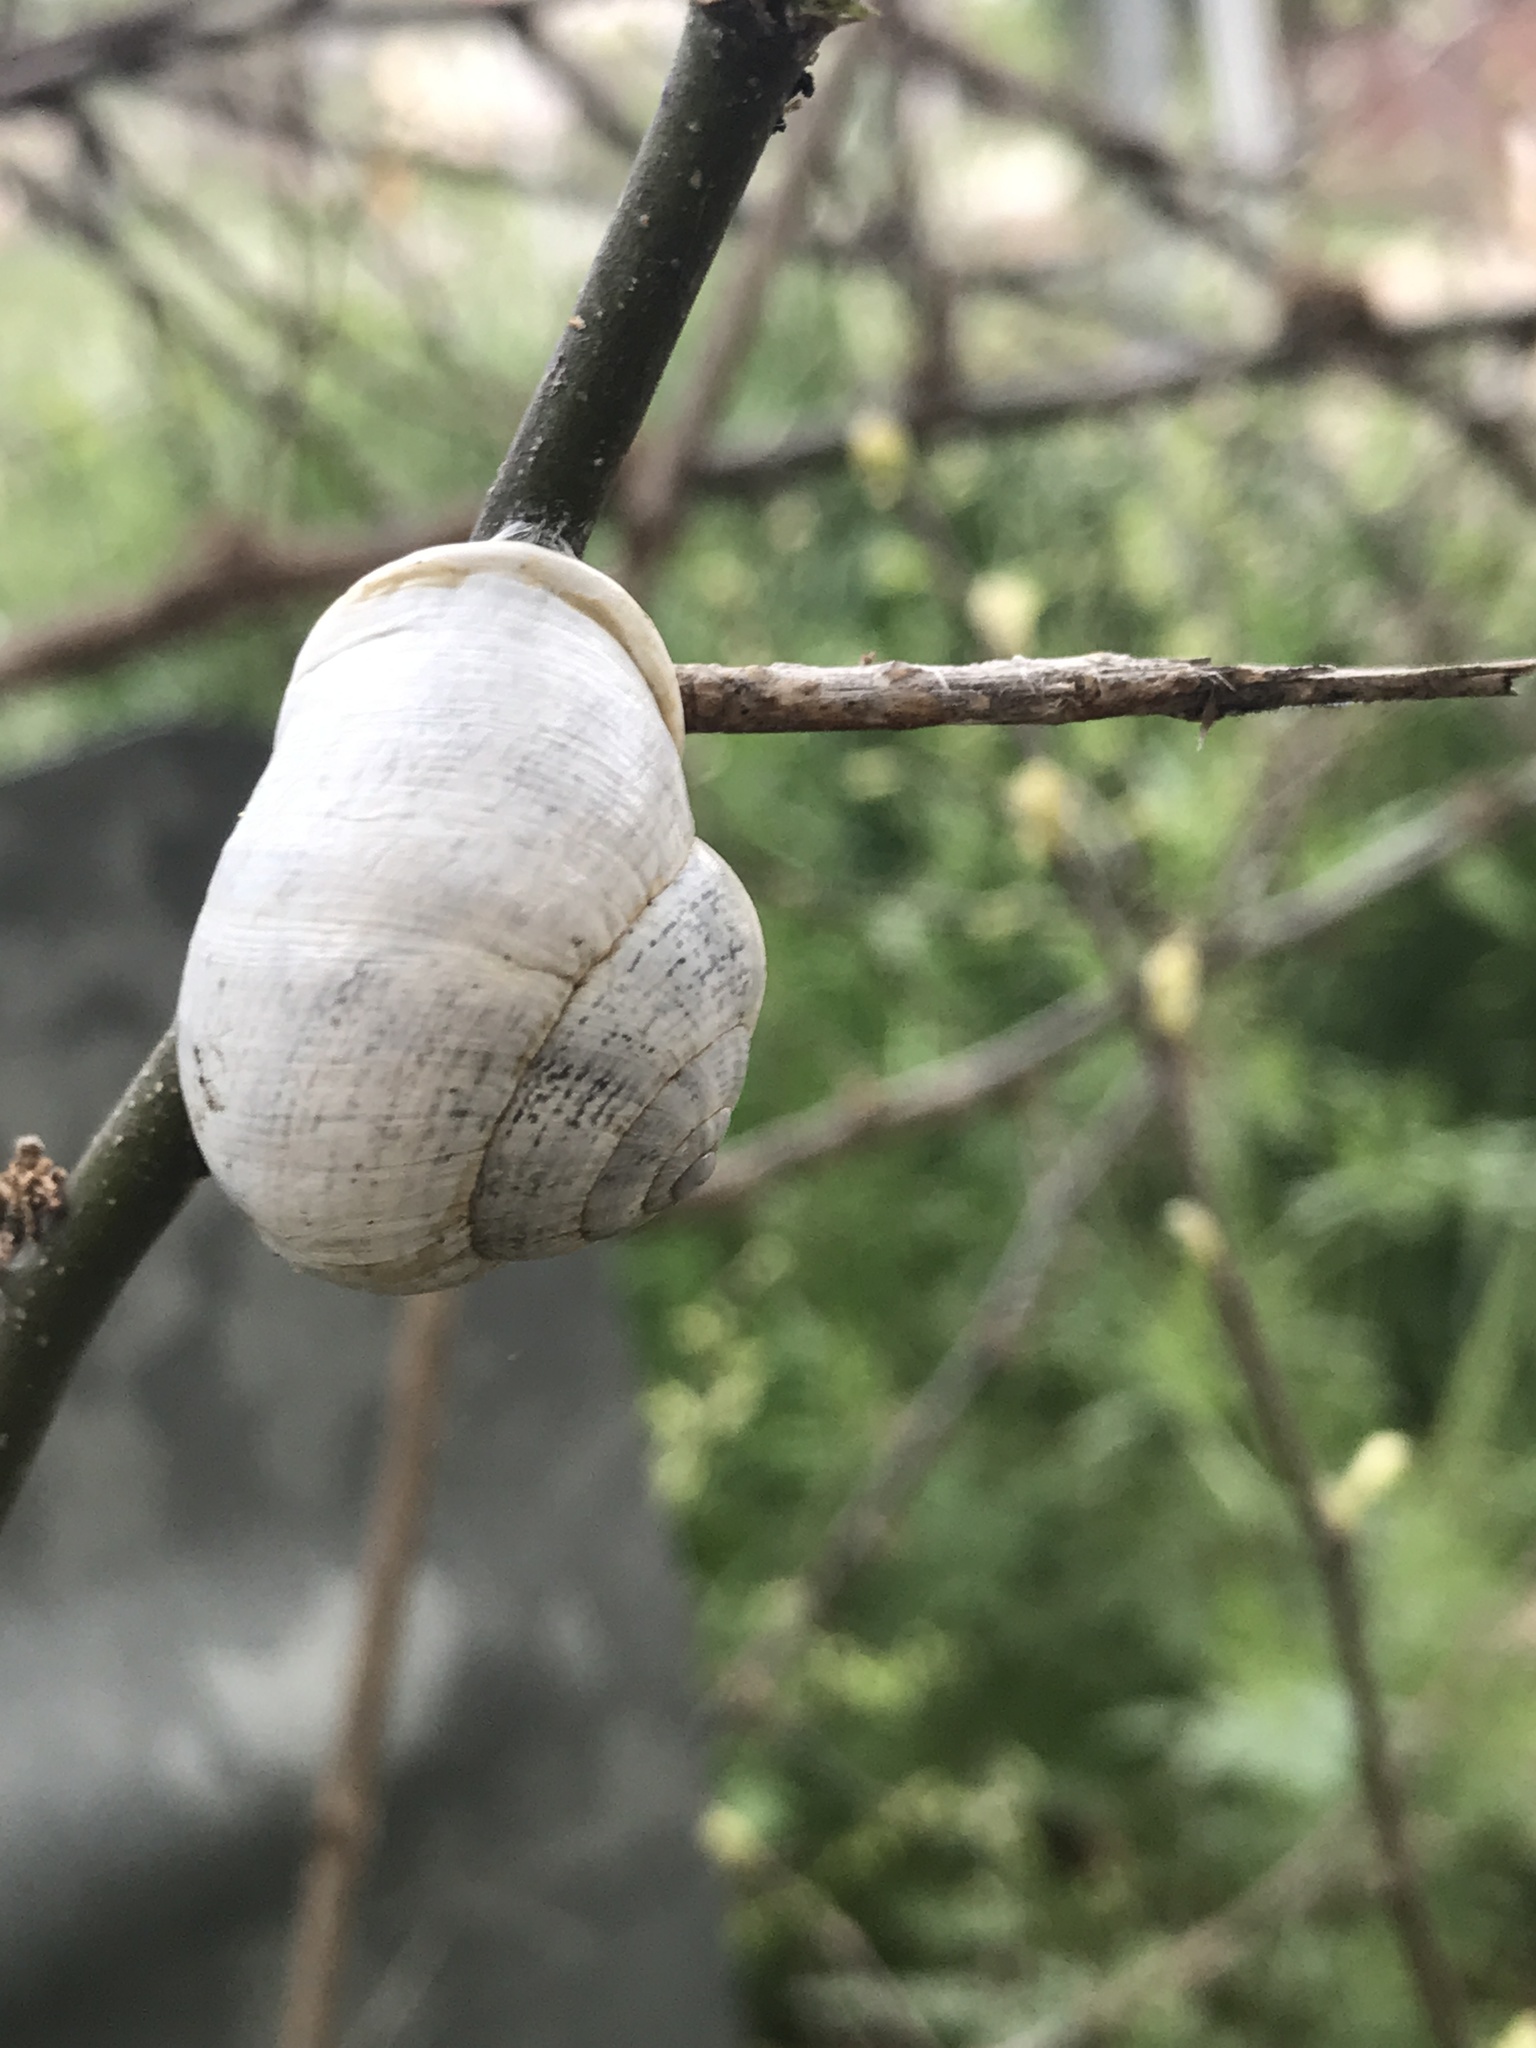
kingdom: Animalia
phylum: Mollusca
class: Gastropoda
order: Stylommatophora
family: Helicidae
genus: Otala
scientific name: Otala lactea
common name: Milk snail
